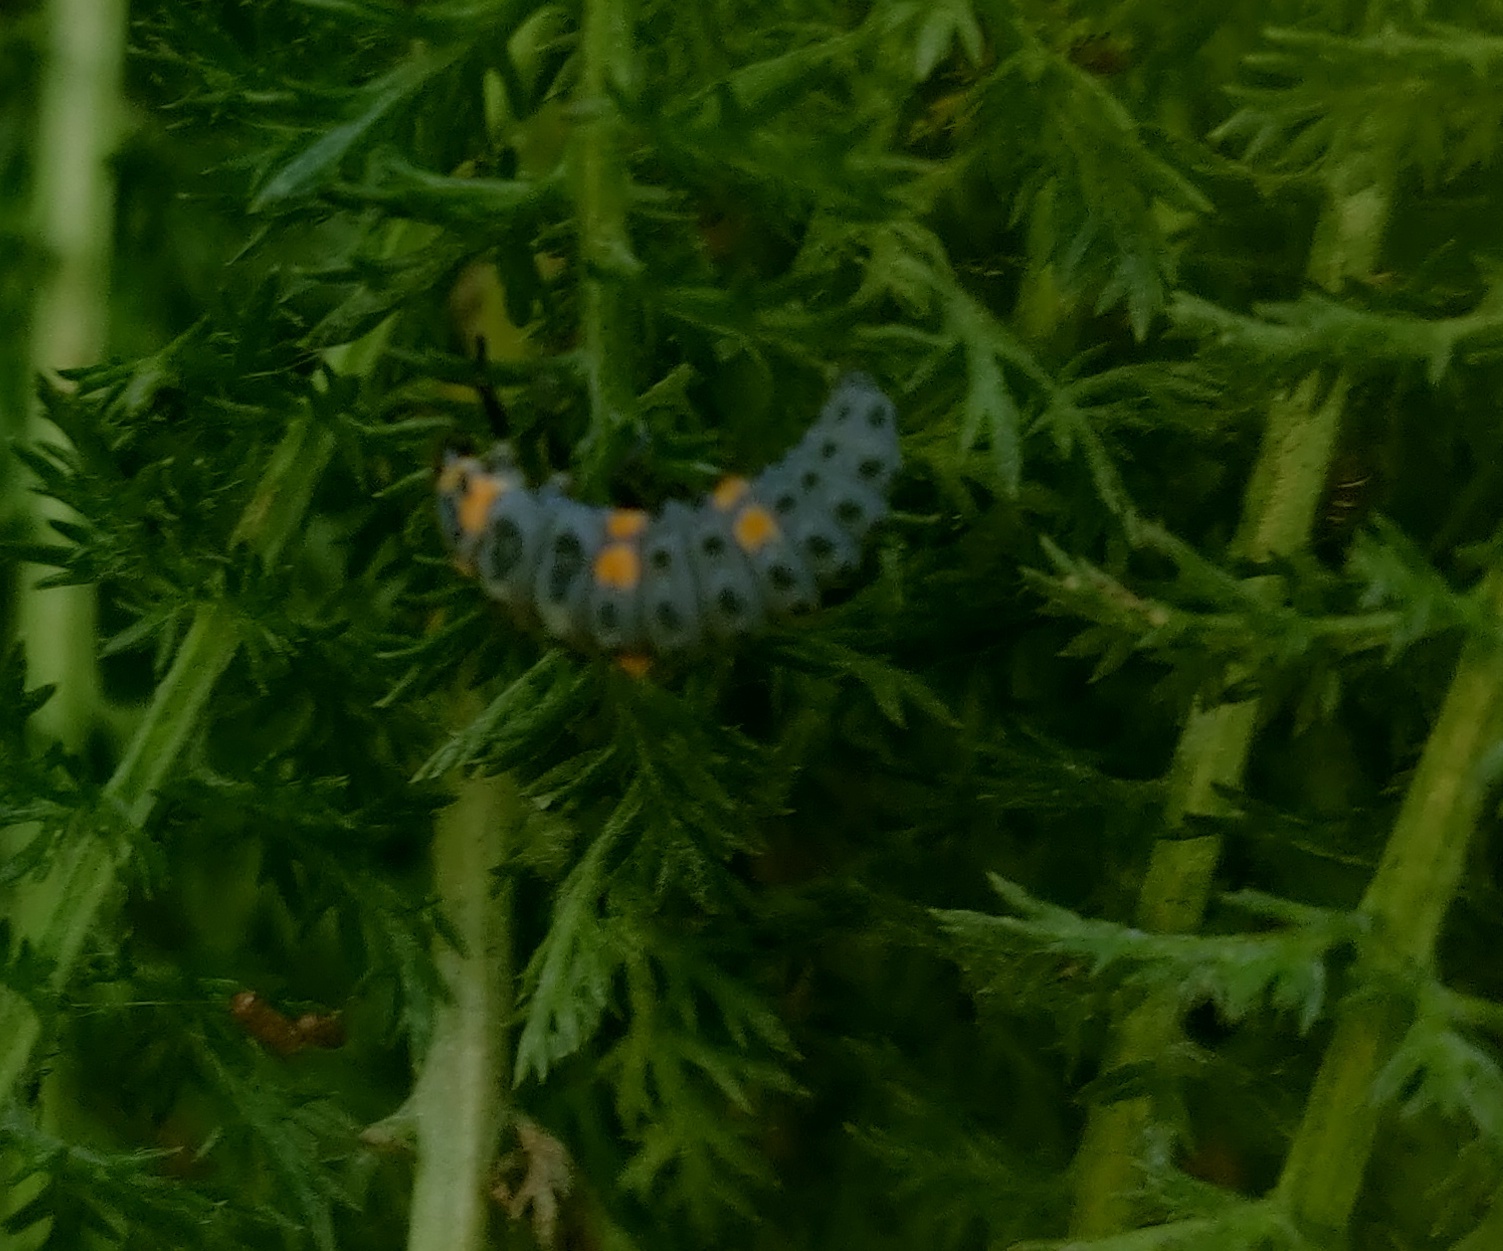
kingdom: Animalia
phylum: Arthropoda
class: Insecta
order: Coleoptera
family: Coccinellidae
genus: Coccinella
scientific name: Coccinella septempunctata
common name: Sevenspotted lady beetle
